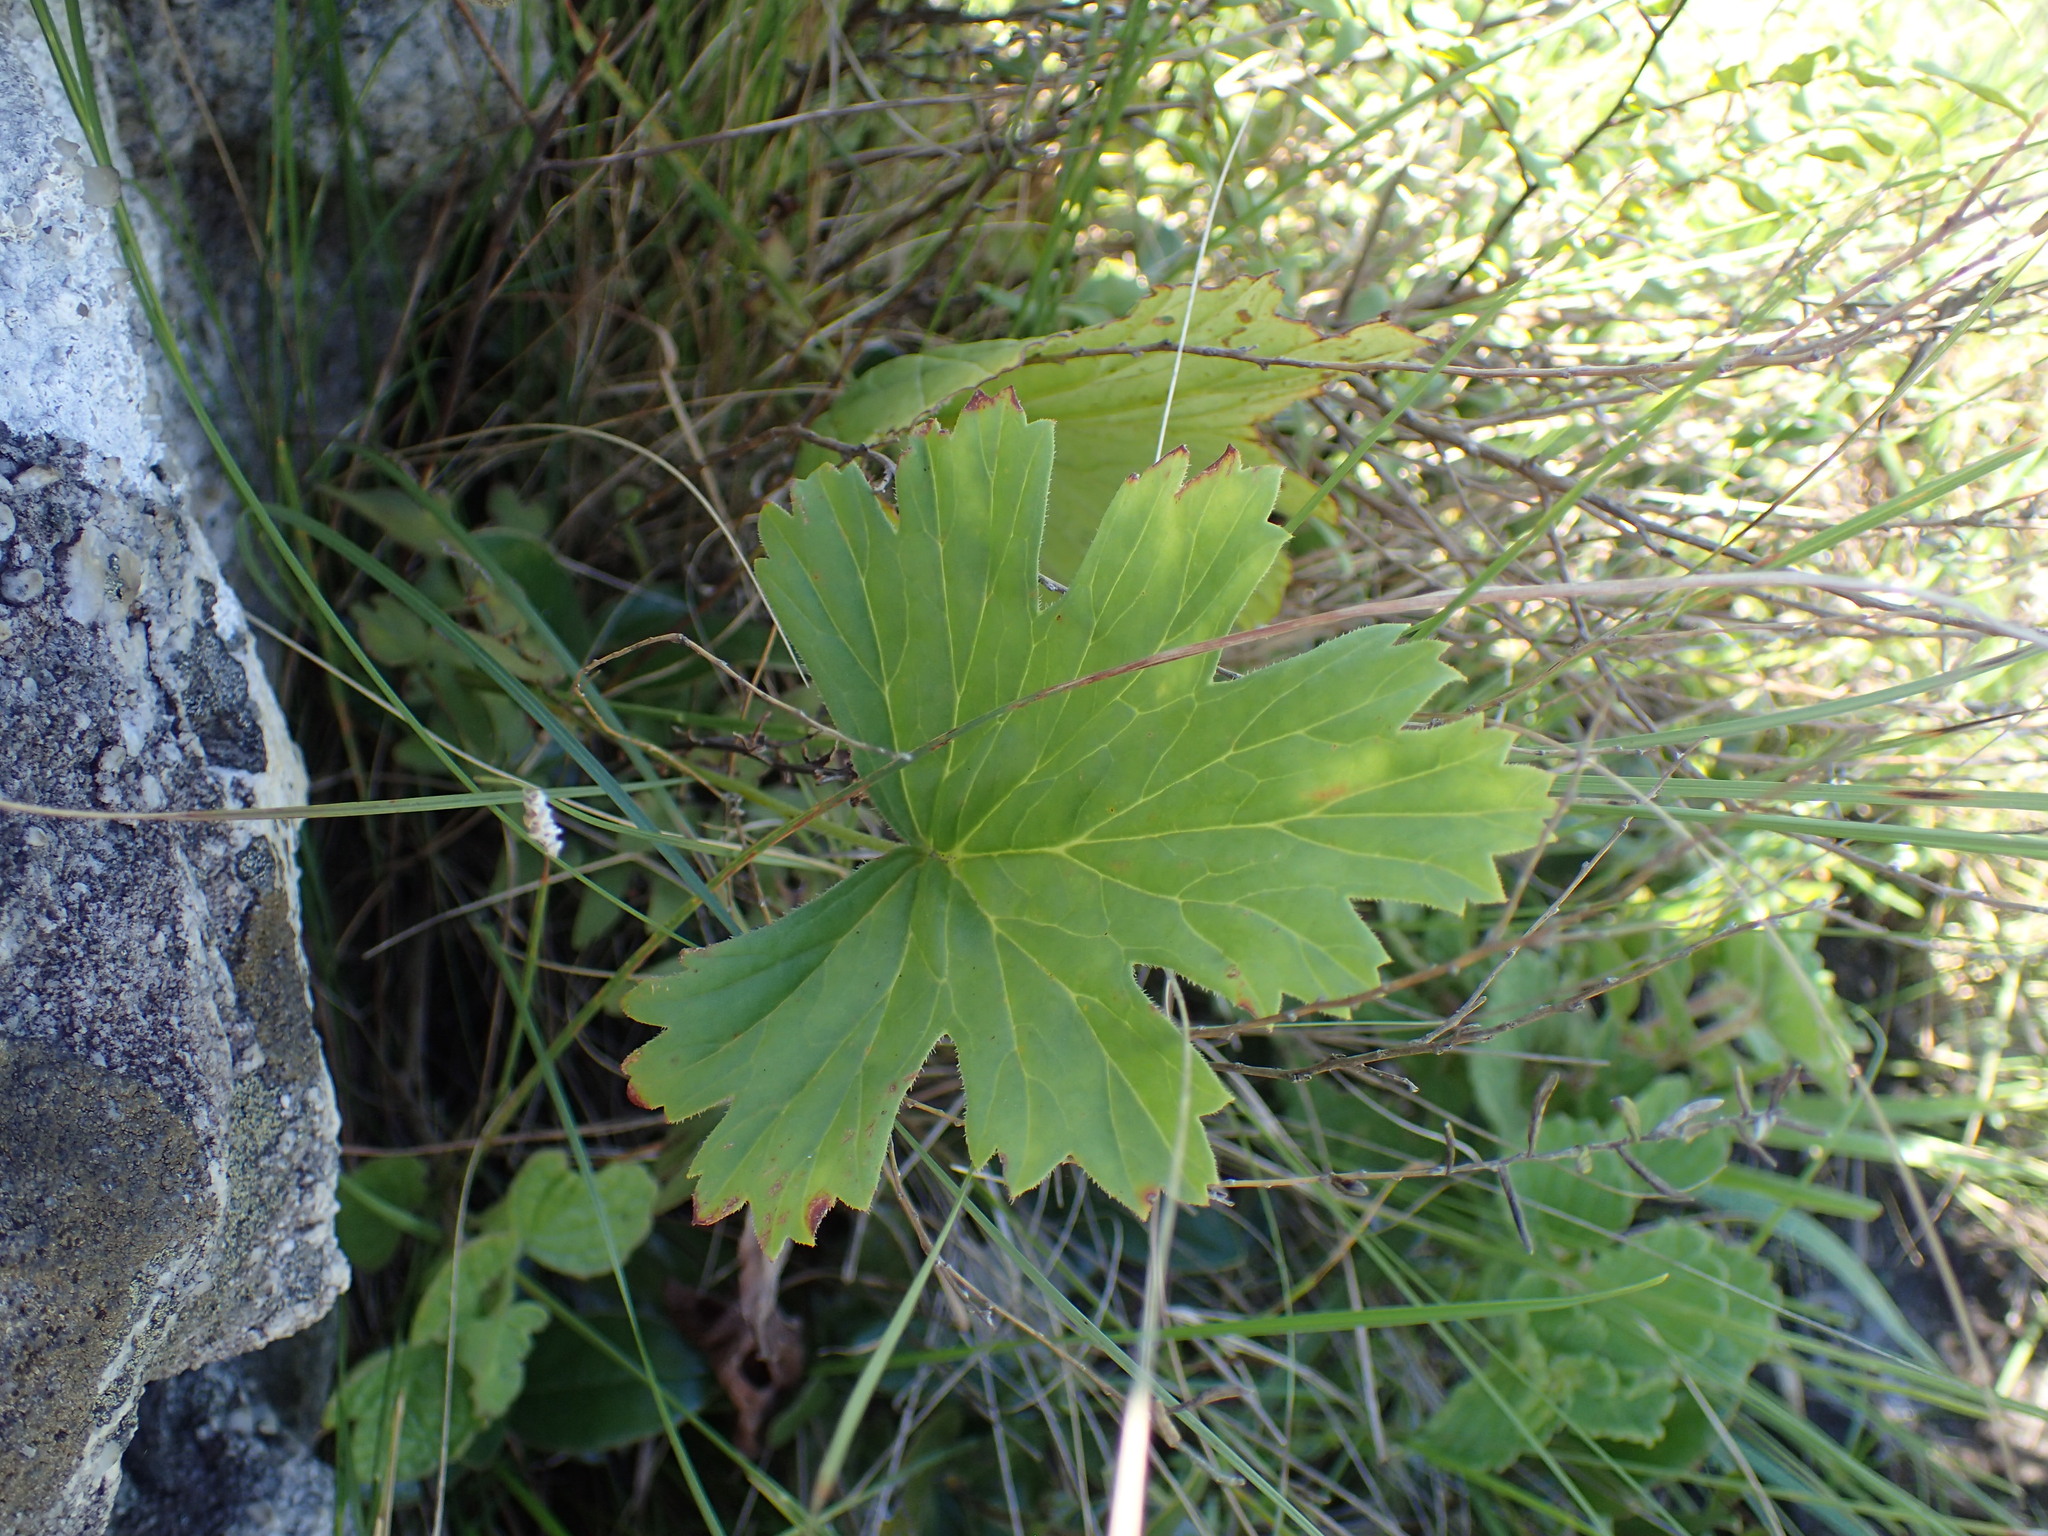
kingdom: Plantae
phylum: Tracheophyta
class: Magnoliopsida
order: Geraniales
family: Geraniaceae
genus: Pelargonium
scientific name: Pelargonium luridum
